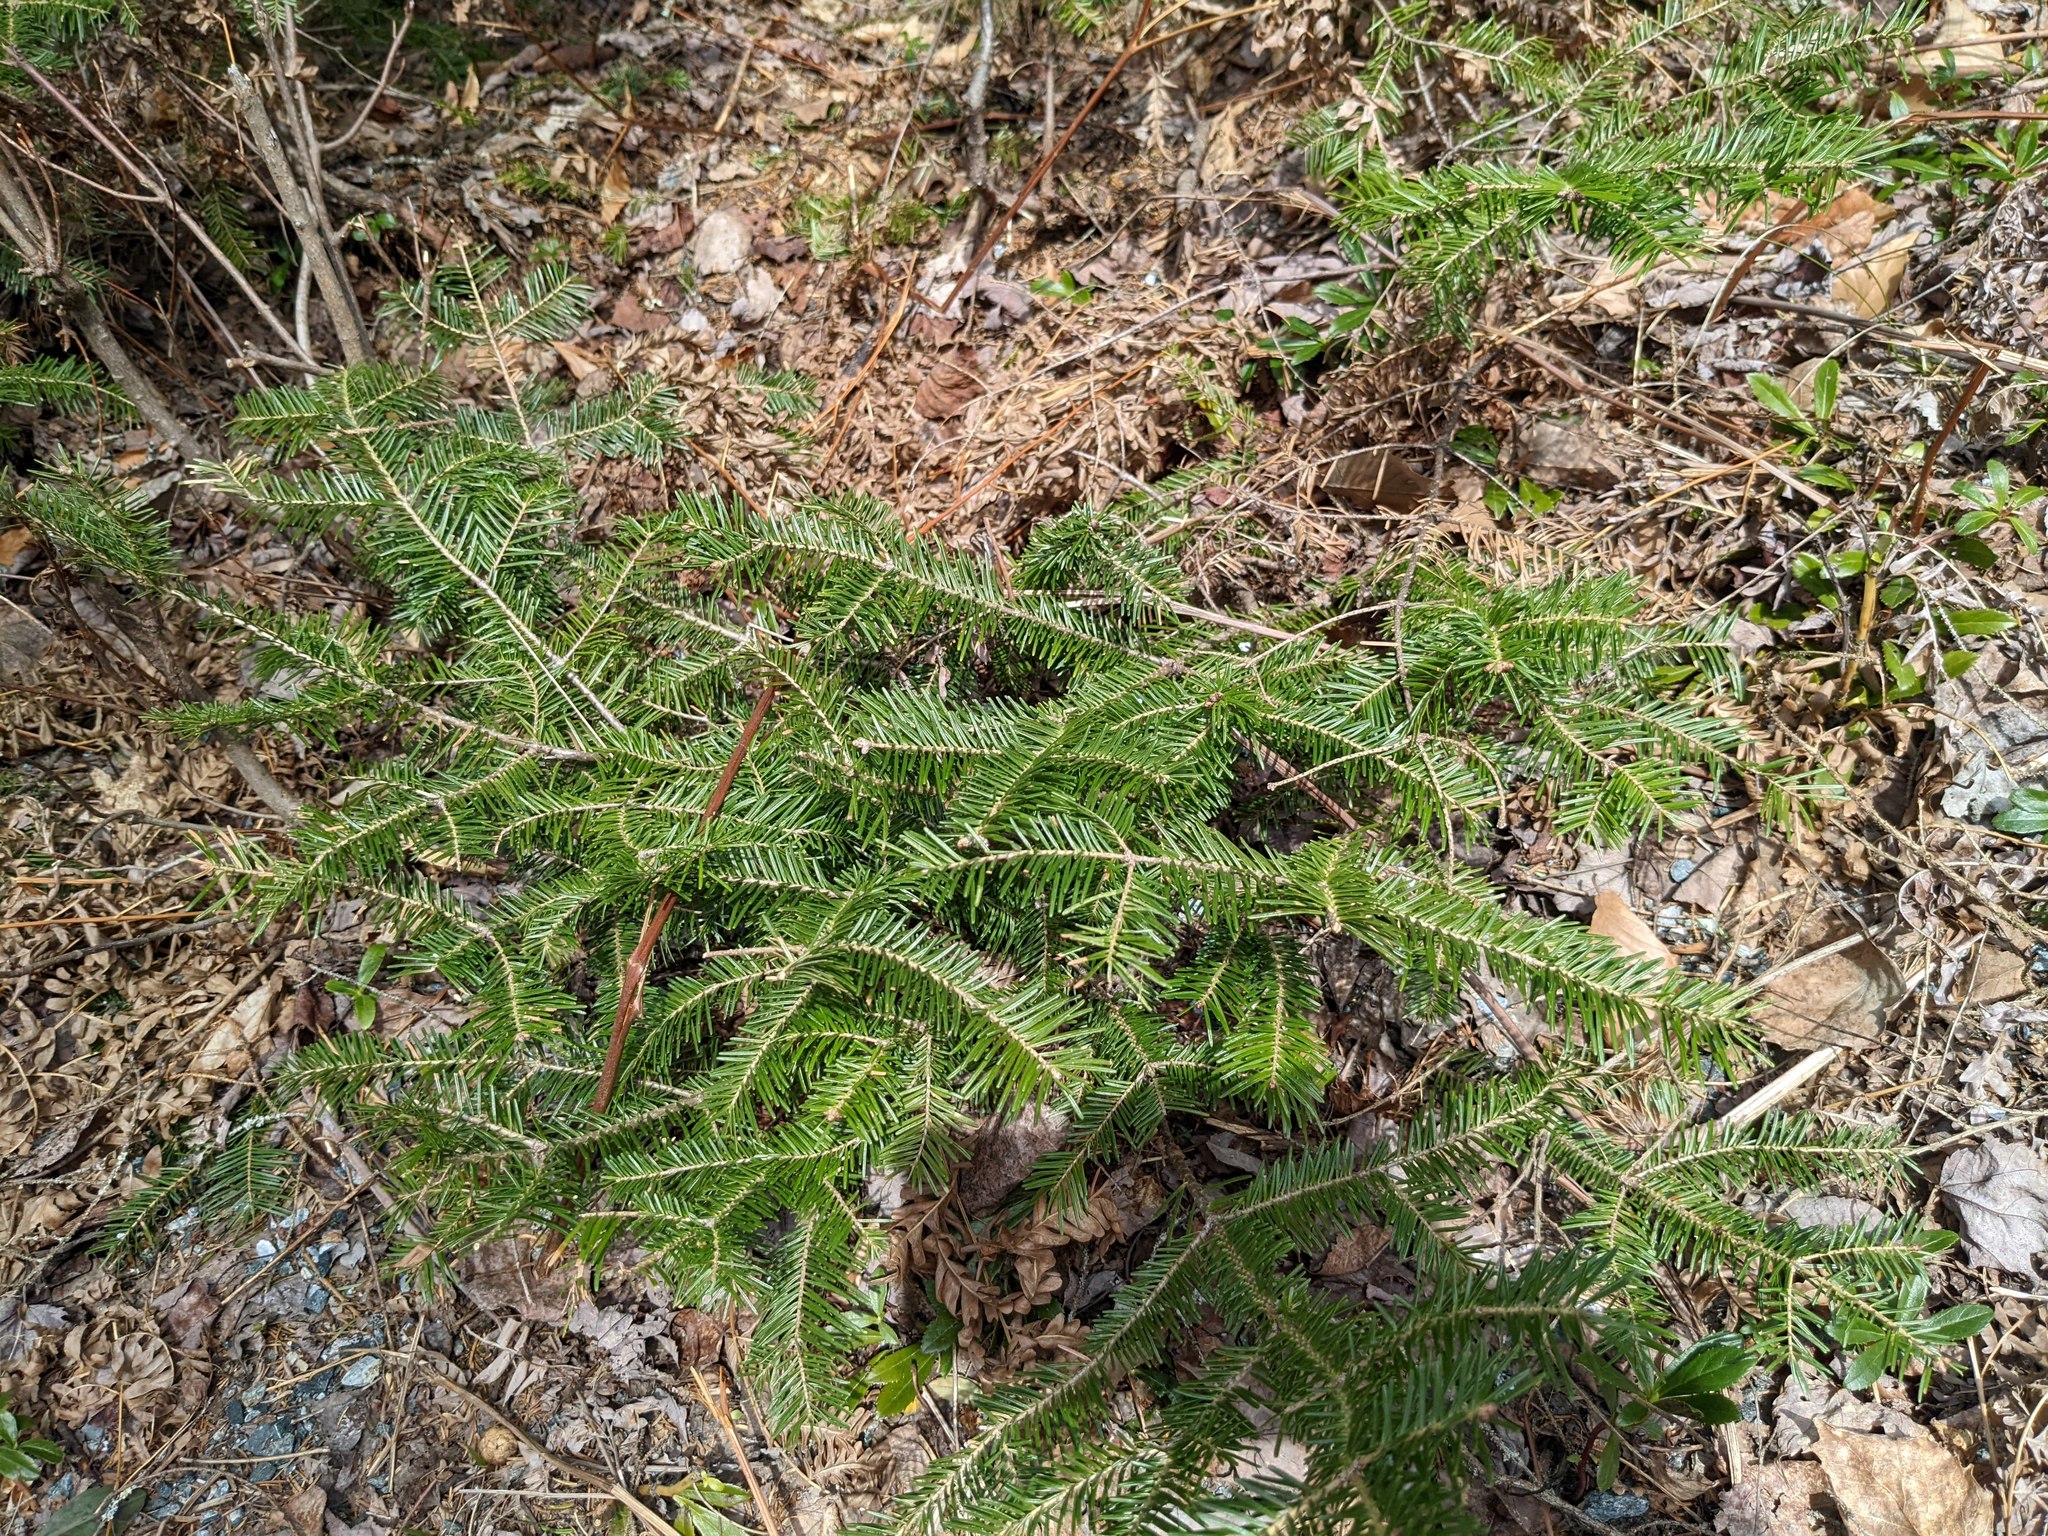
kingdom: Plantae
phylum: Tracheophyta
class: Pinopsida
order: Pinales
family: Pinaceae
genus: Abies
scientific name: Abies balsamea
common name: Balsam fir
